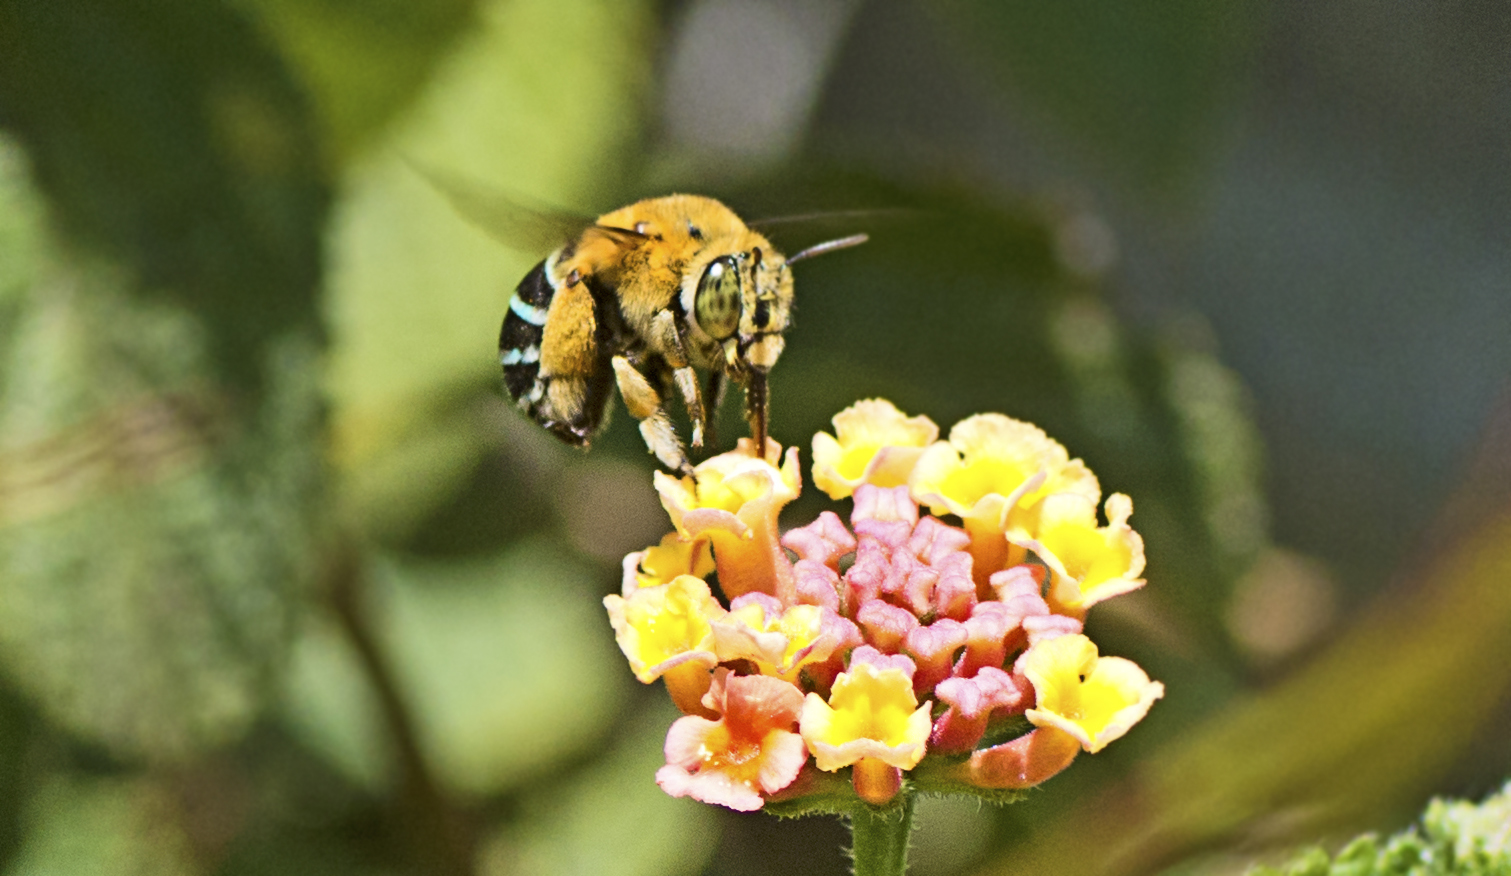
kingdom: Animalia
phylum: Arthropoda
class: Insecta
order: Hymenoptera
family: Apidae
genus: Amegilla
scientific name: Amegilla cingulata
